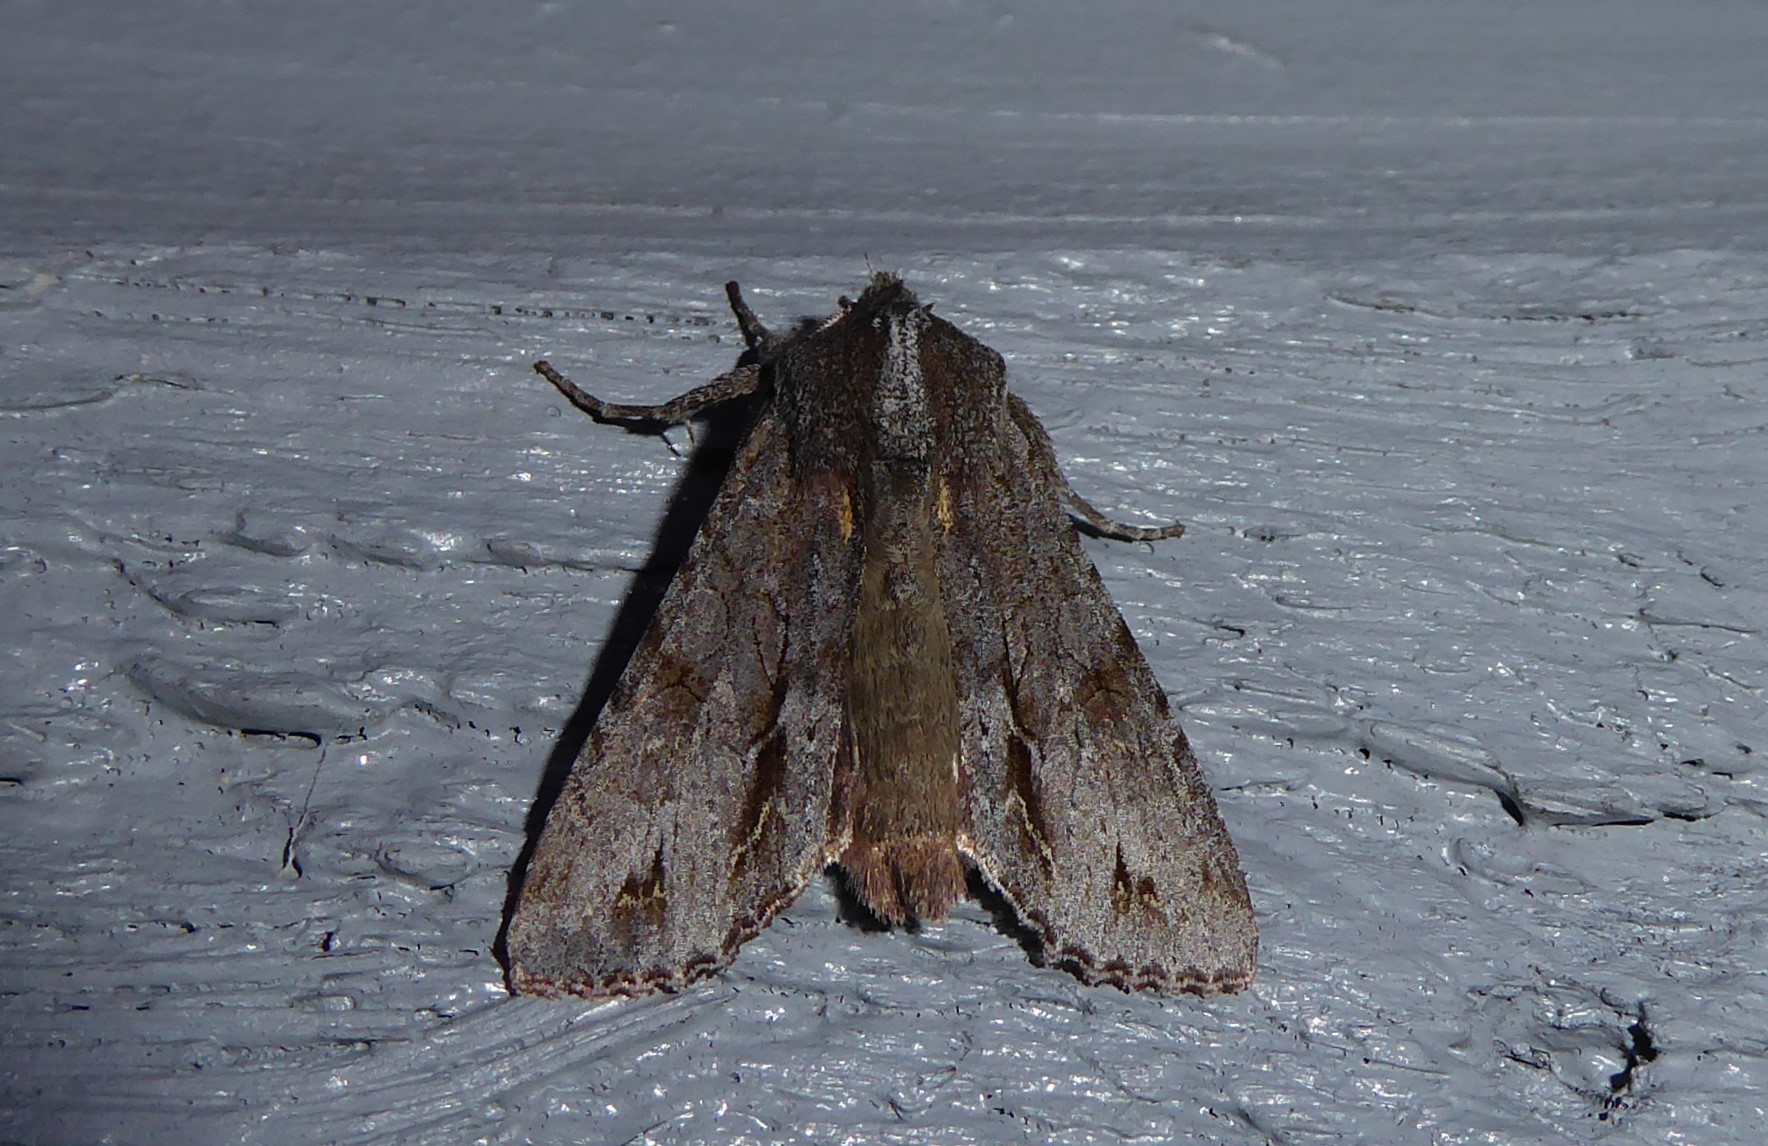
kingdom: Animalia
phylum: Arthropoda
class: Insecta
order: Lepidoptera
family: Noctuidae
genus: Ichneutica
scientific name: Ichneutica
